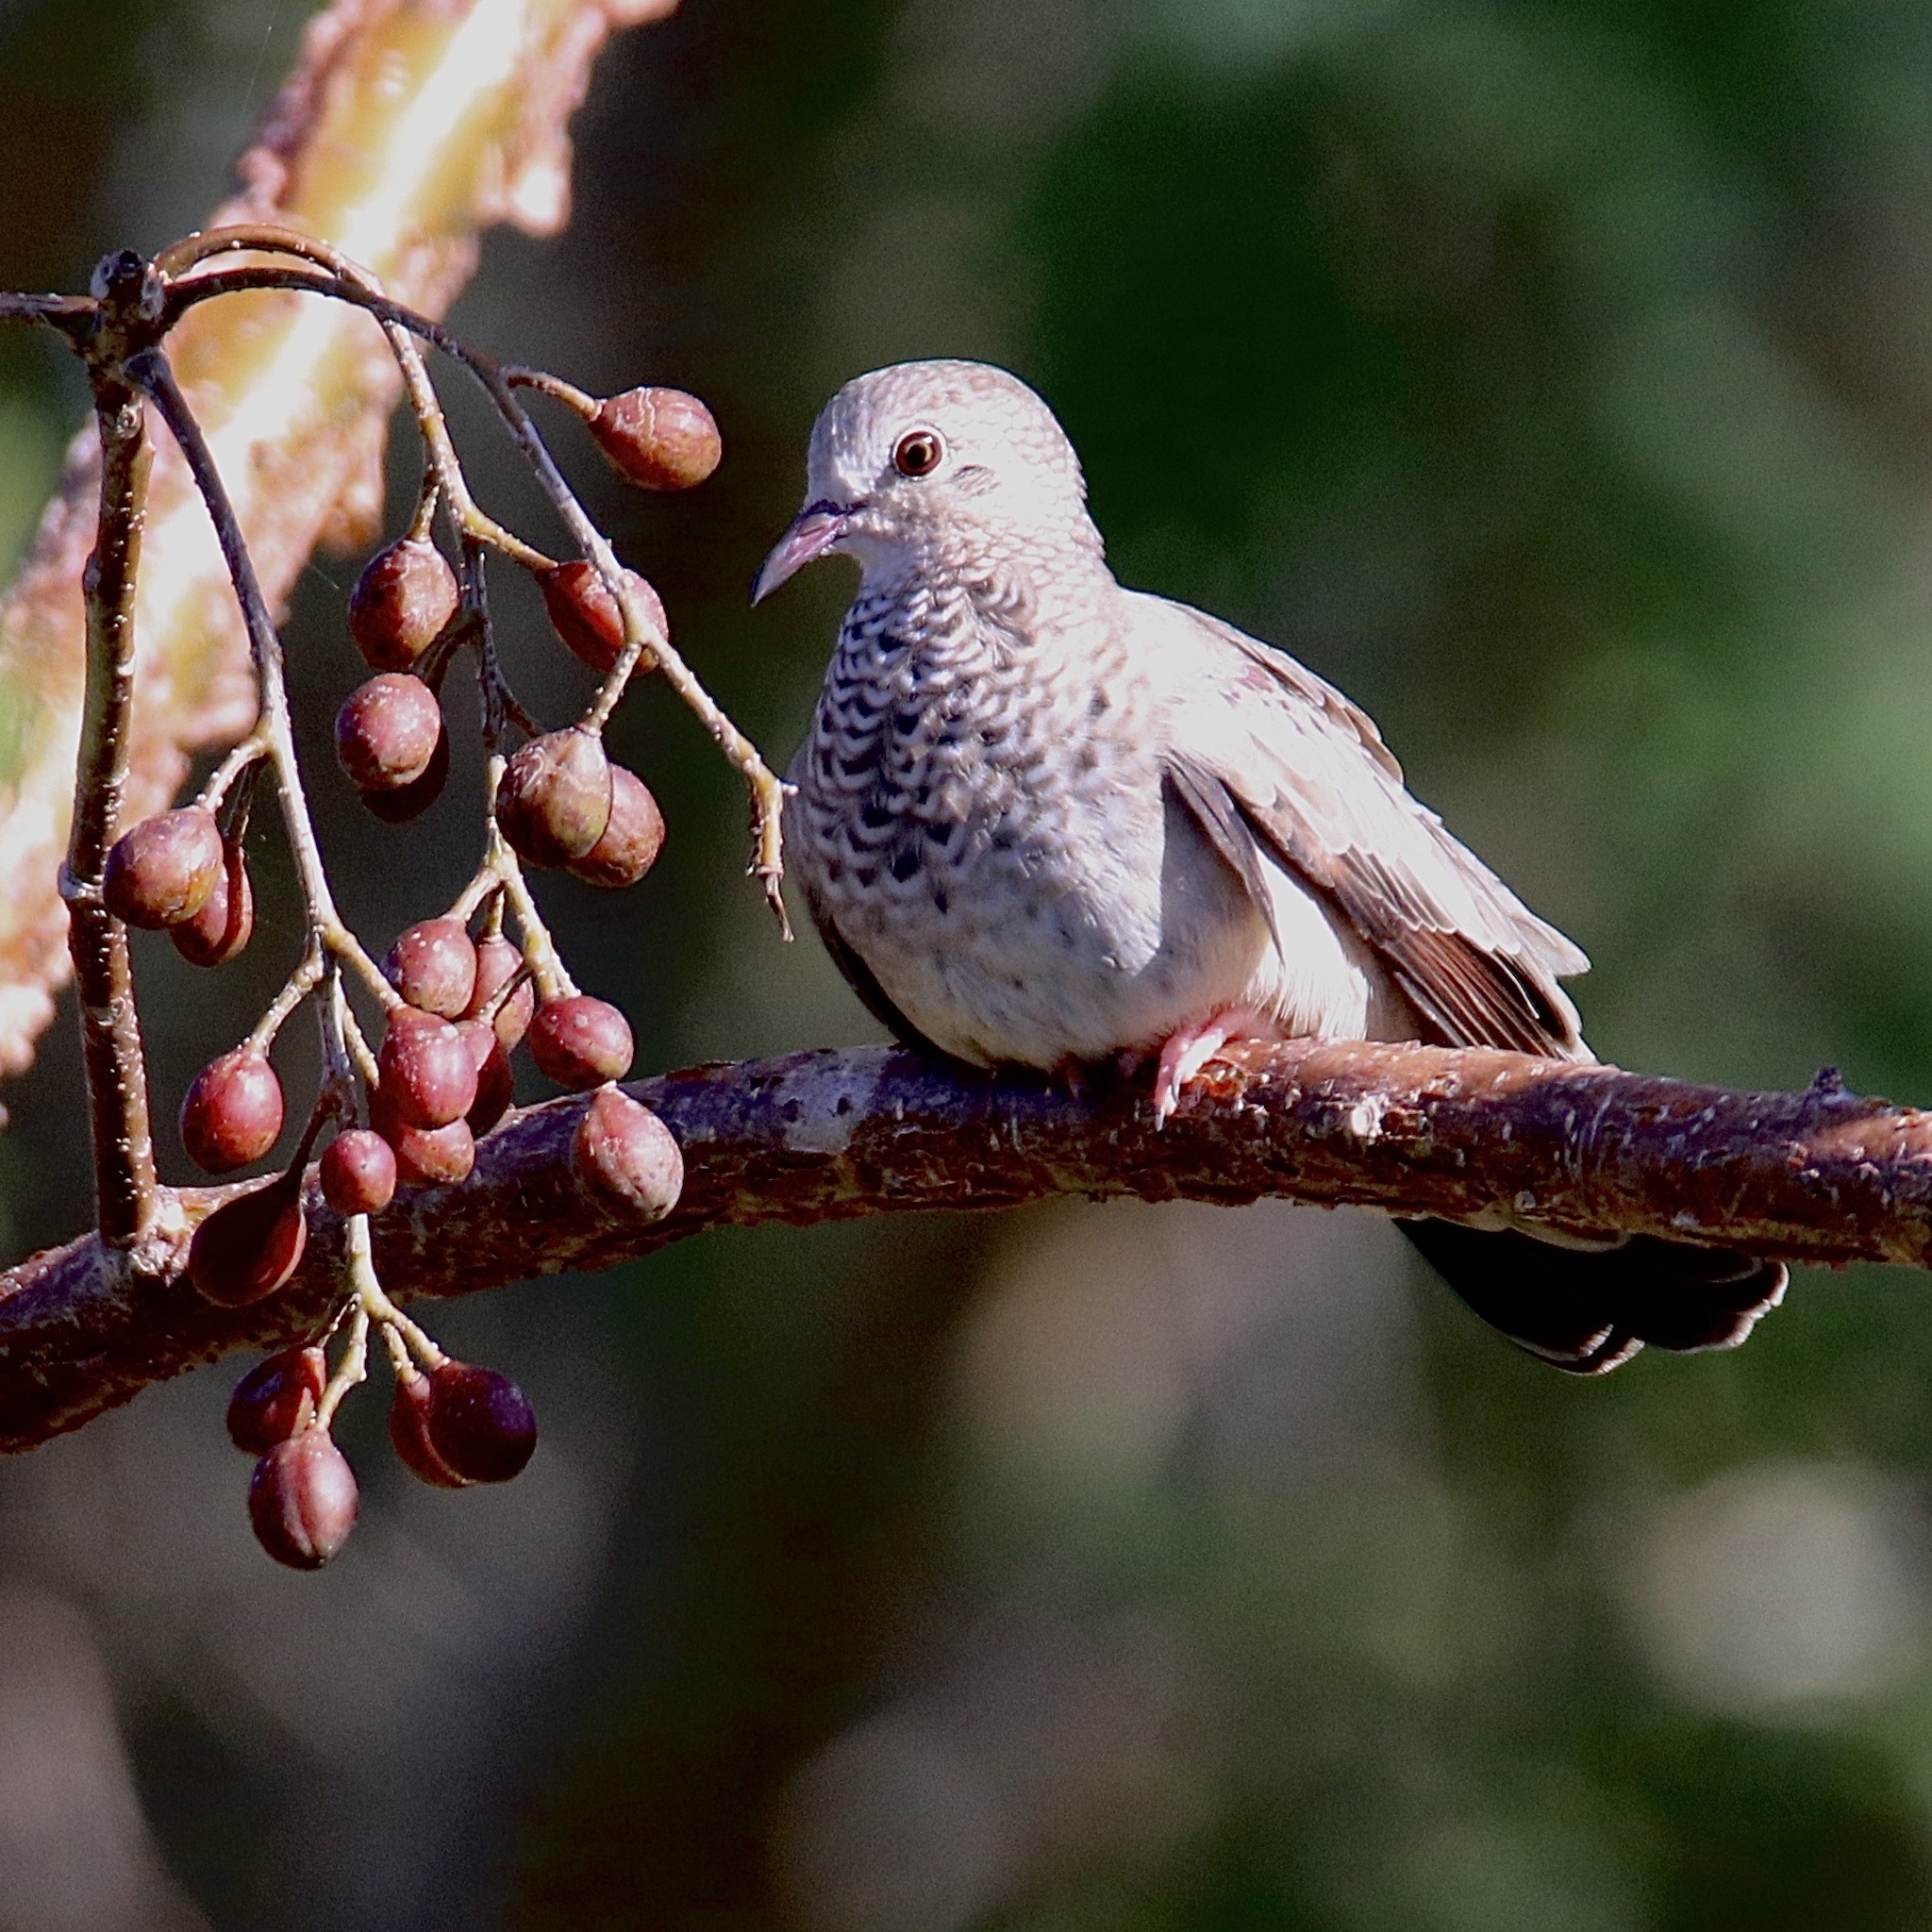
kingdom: Animalia
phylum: Chordata
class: Aves
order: Columbiformes
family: Columbidae
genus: Columbina
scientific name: Columbina passerina
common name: Common ground-dove
